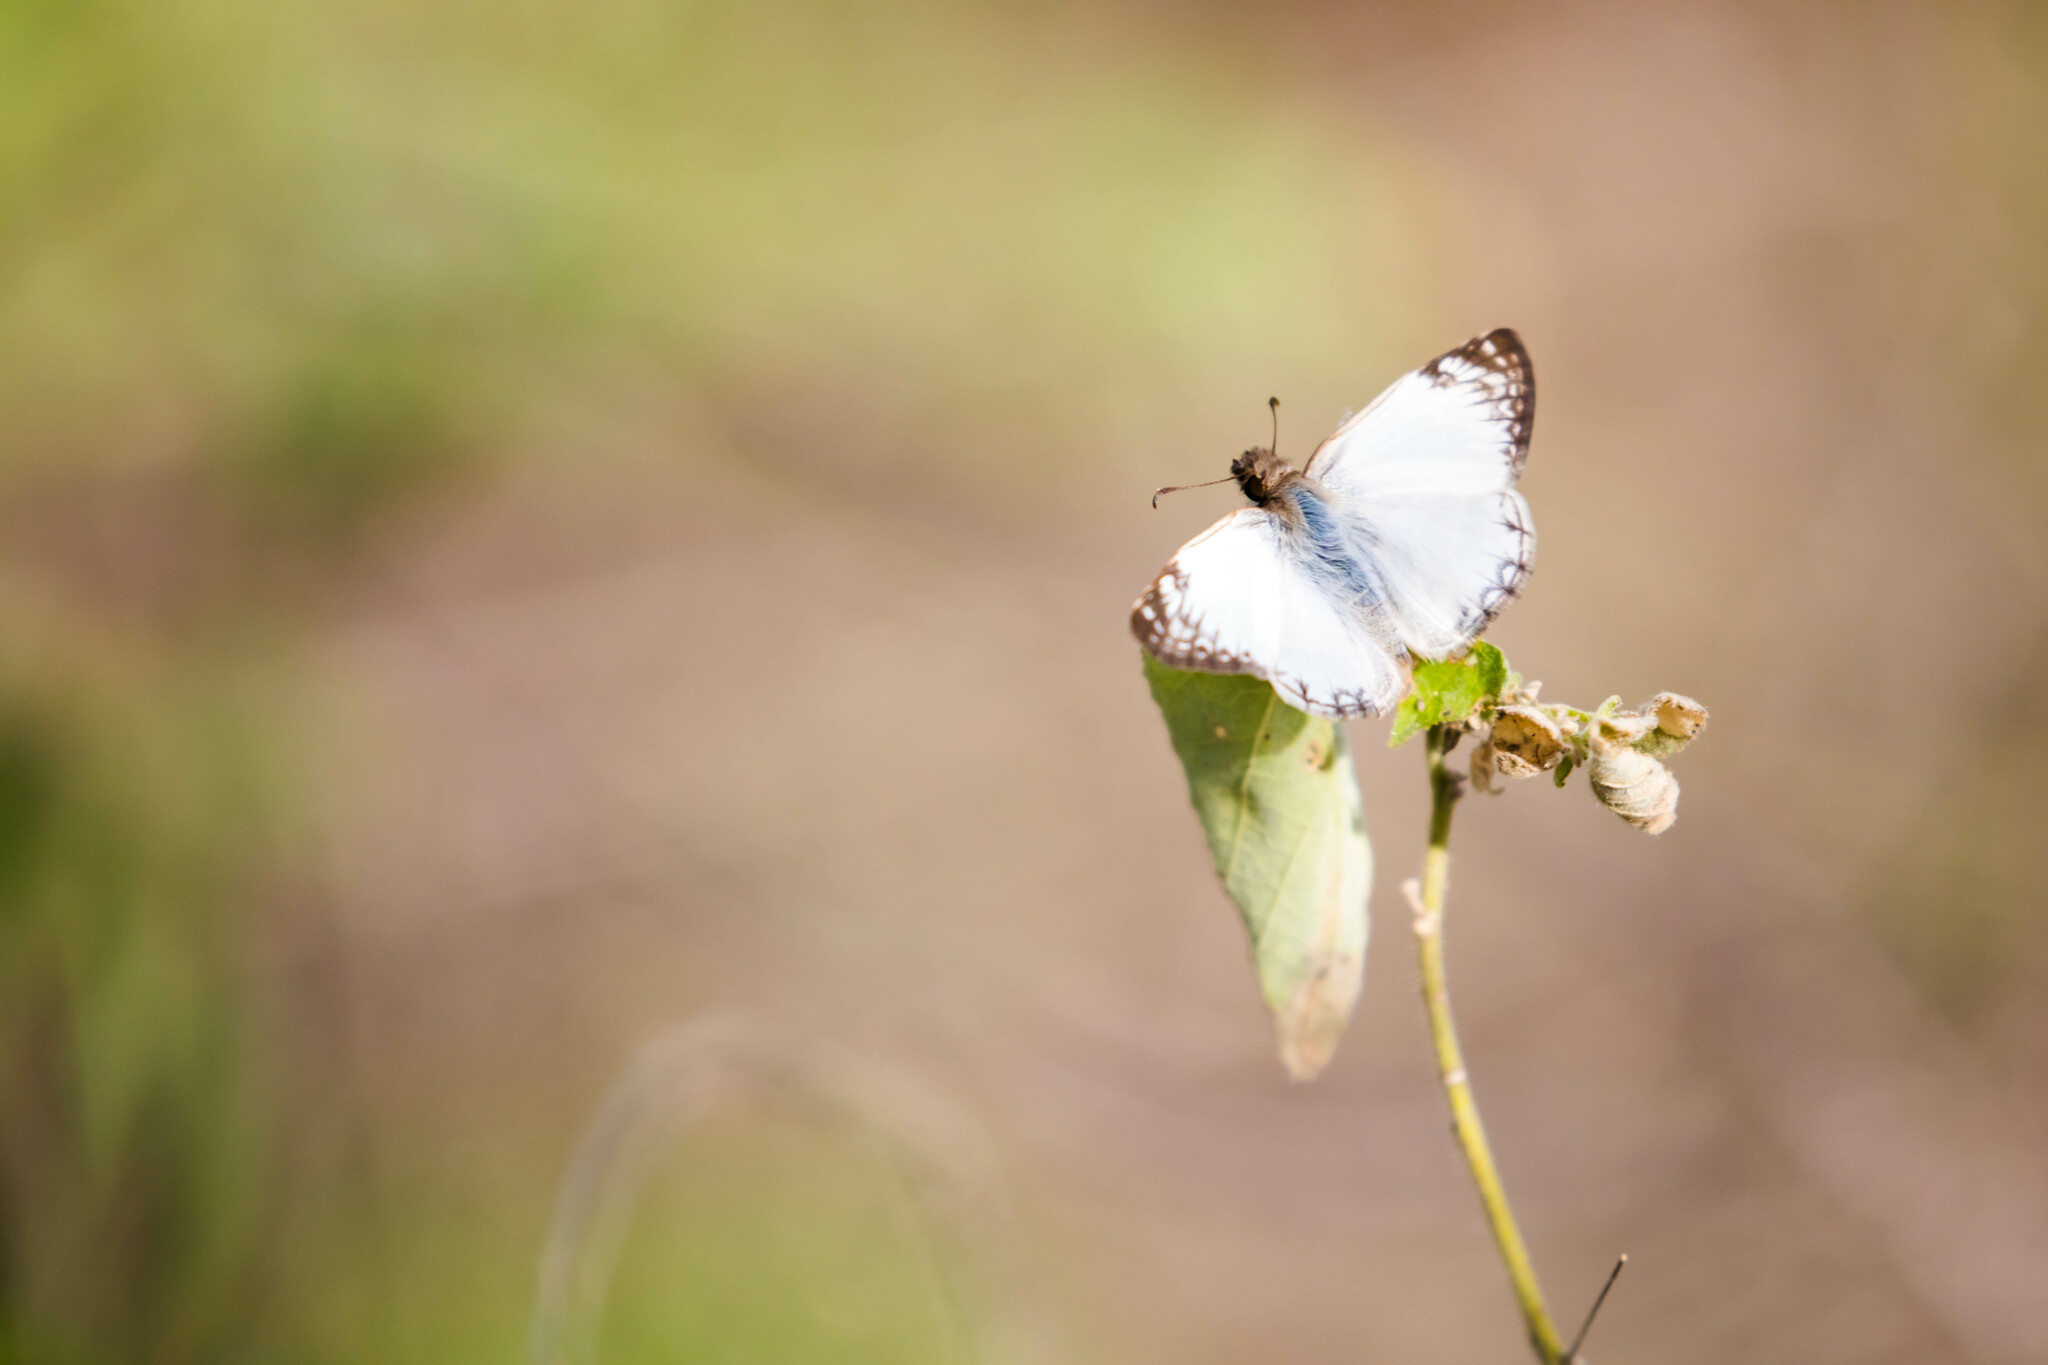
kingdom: Animalia
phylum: Arthropoda
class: Insecta
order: Lepidoptera
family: Hesperiidae
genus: Heliopetes
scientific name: Heliopetes laviana
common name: Laviana white-skipper
